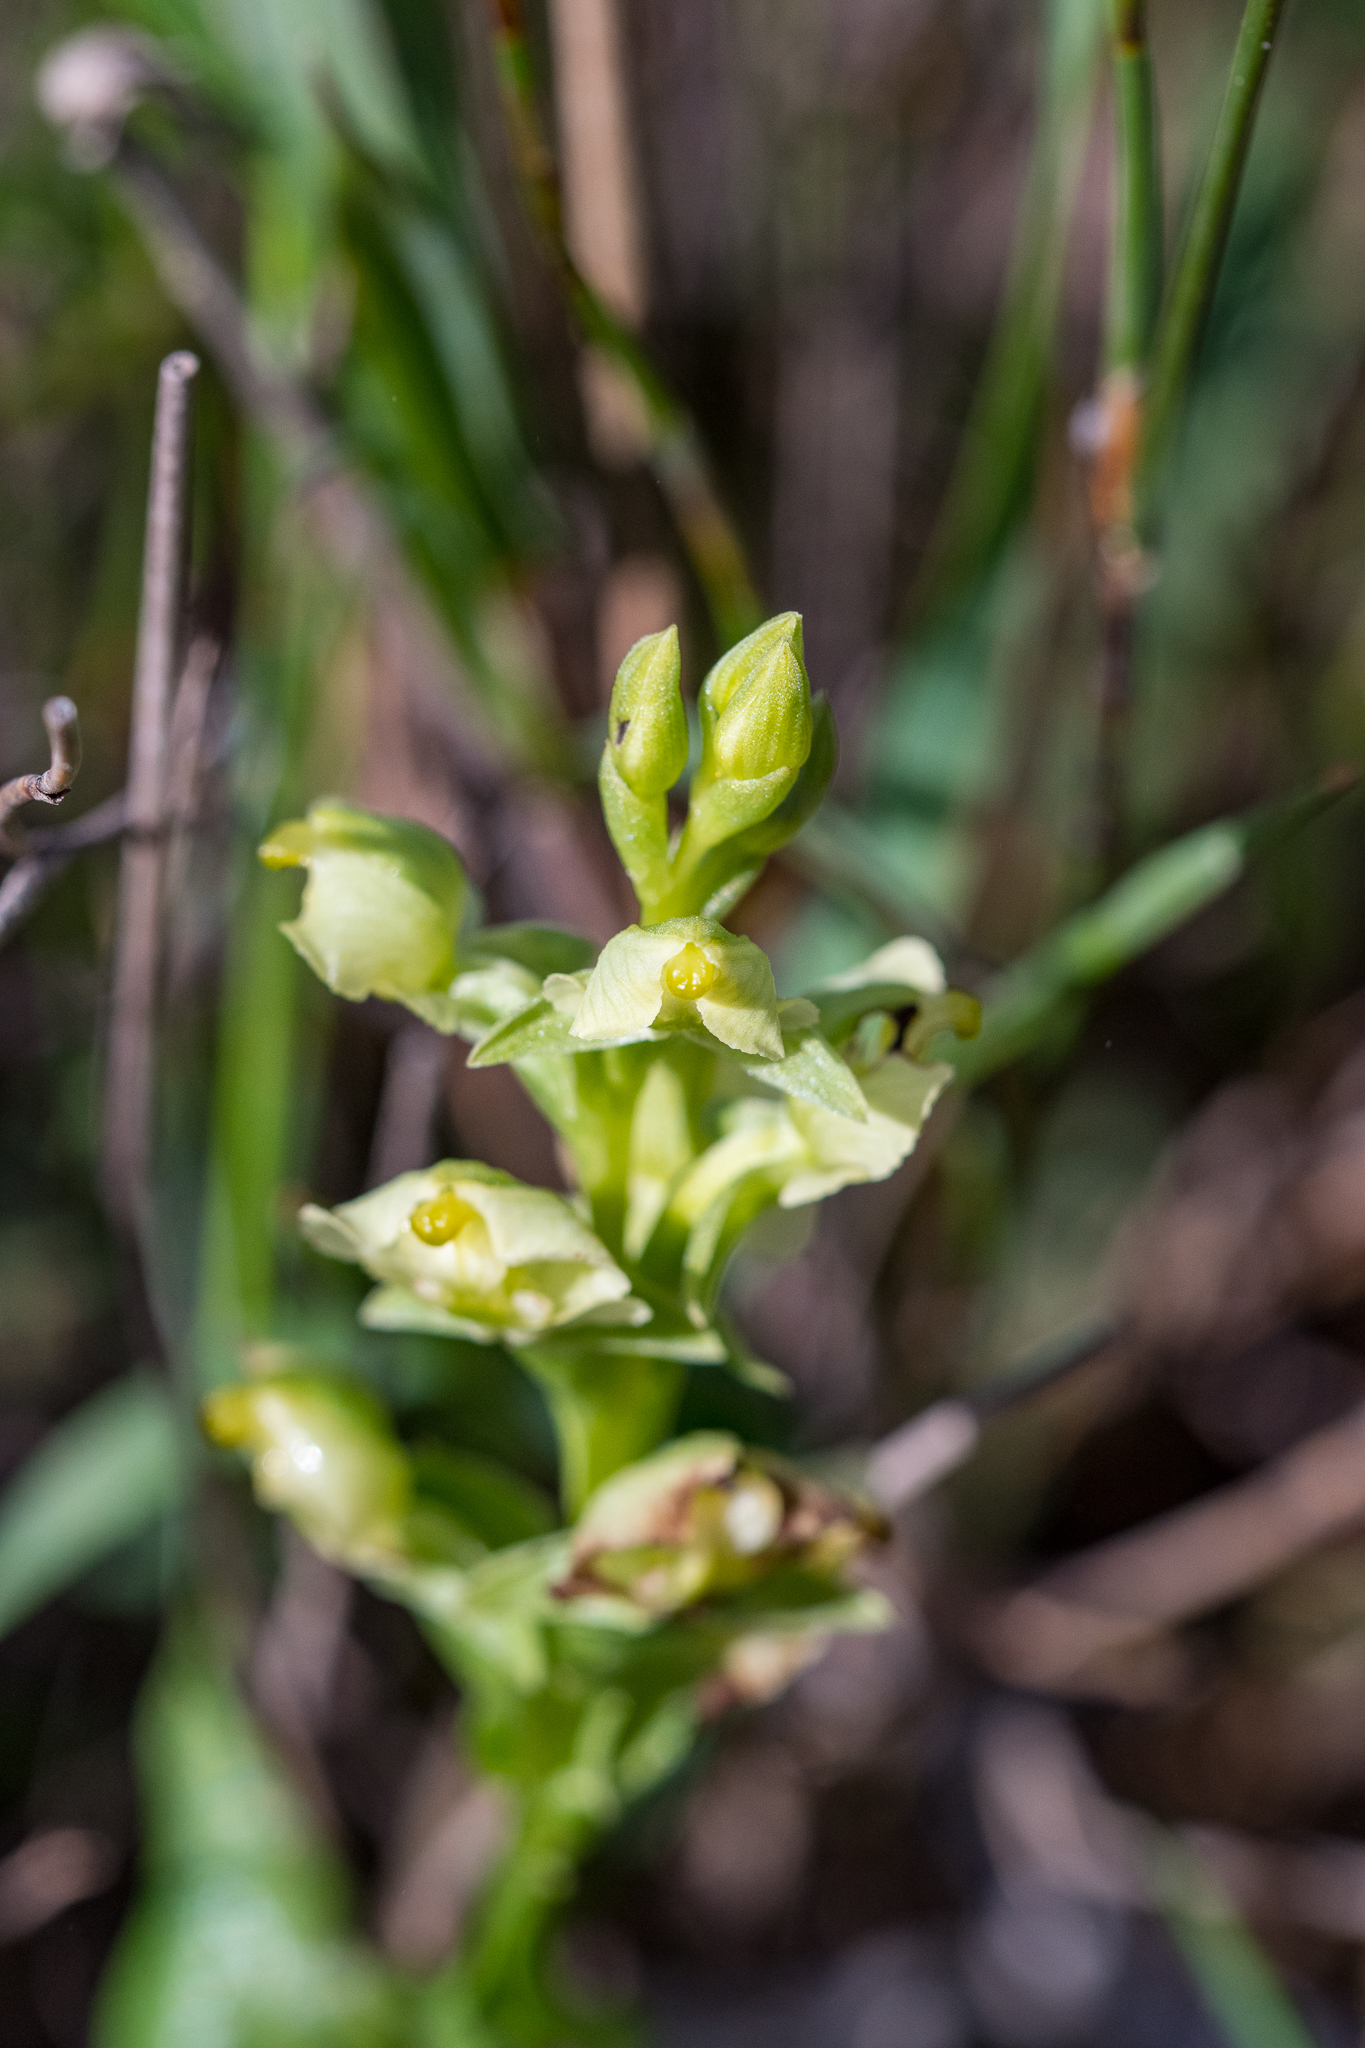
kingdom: Plantae
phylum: Tracheophyta
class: Liliopsida
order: Asparagales
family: Orchidaceae
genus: Pterygodium
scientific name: Pterygodium alatum
